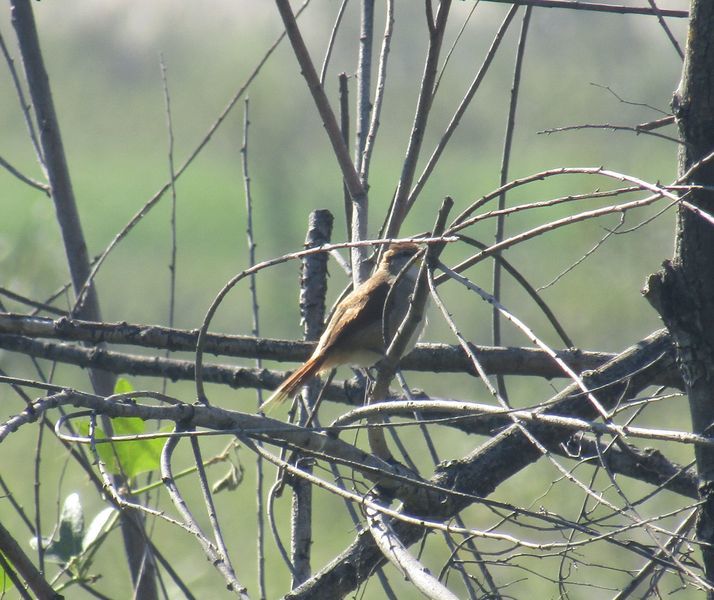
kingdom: Animalia
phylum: Chordata
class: Aves
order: Passeriformes
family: Furnariidae
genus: Certhiaxis
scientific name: Certhiaxis cinnamomeus
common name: Yellow-chinned spinetail
